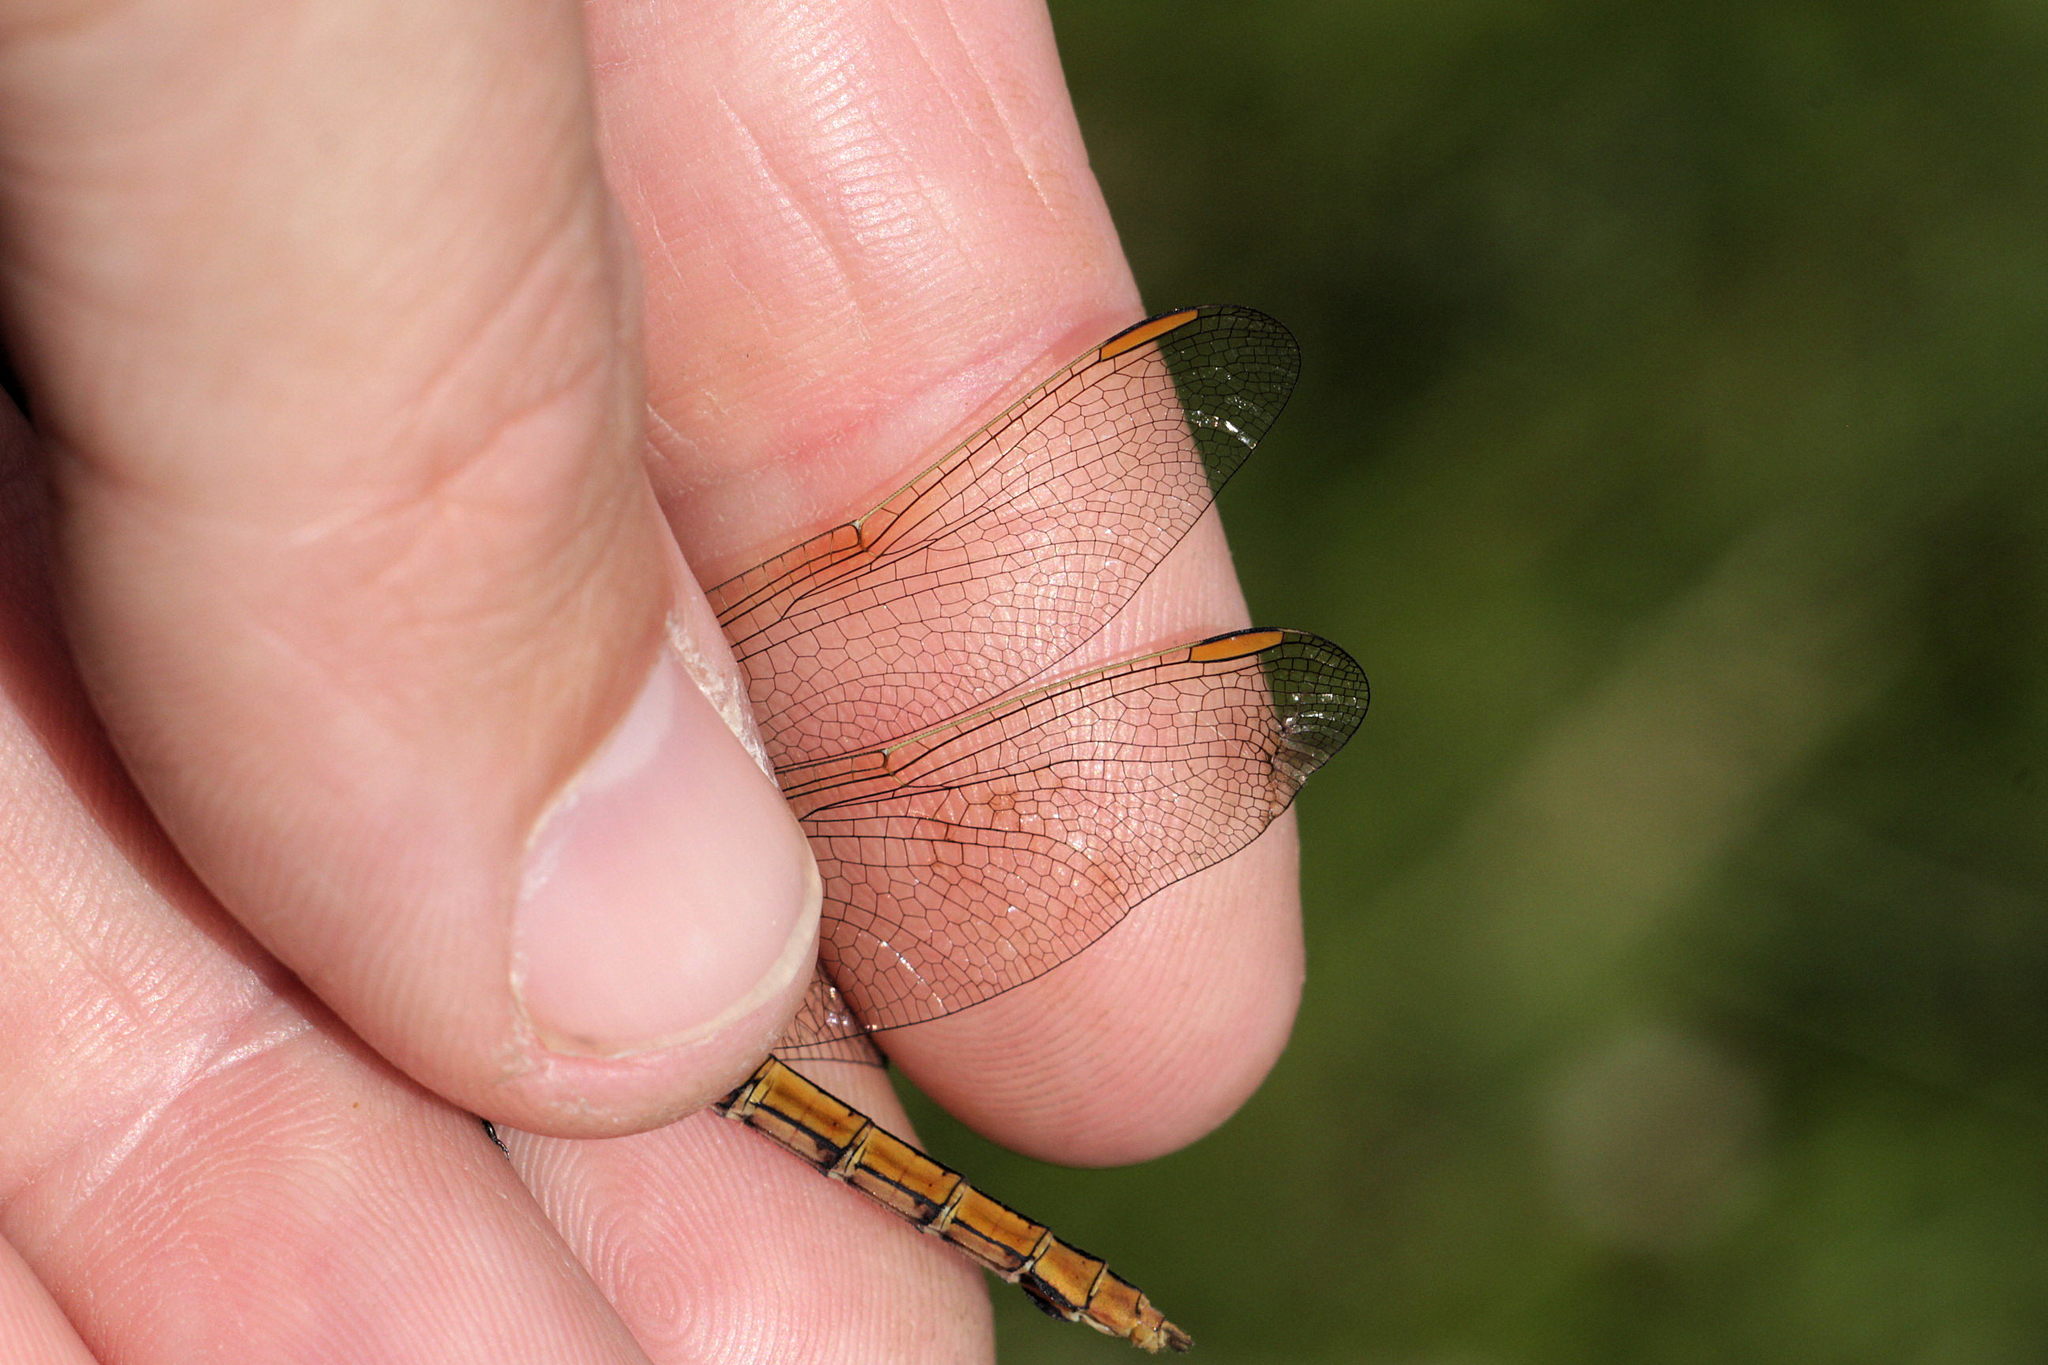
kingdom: Animalia
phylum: Arthropoda
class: Insecta
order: Odonata
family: Libellulidae
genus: Orthetrum
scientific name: Orthetrum coerulescens
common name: Keeled skimmer
